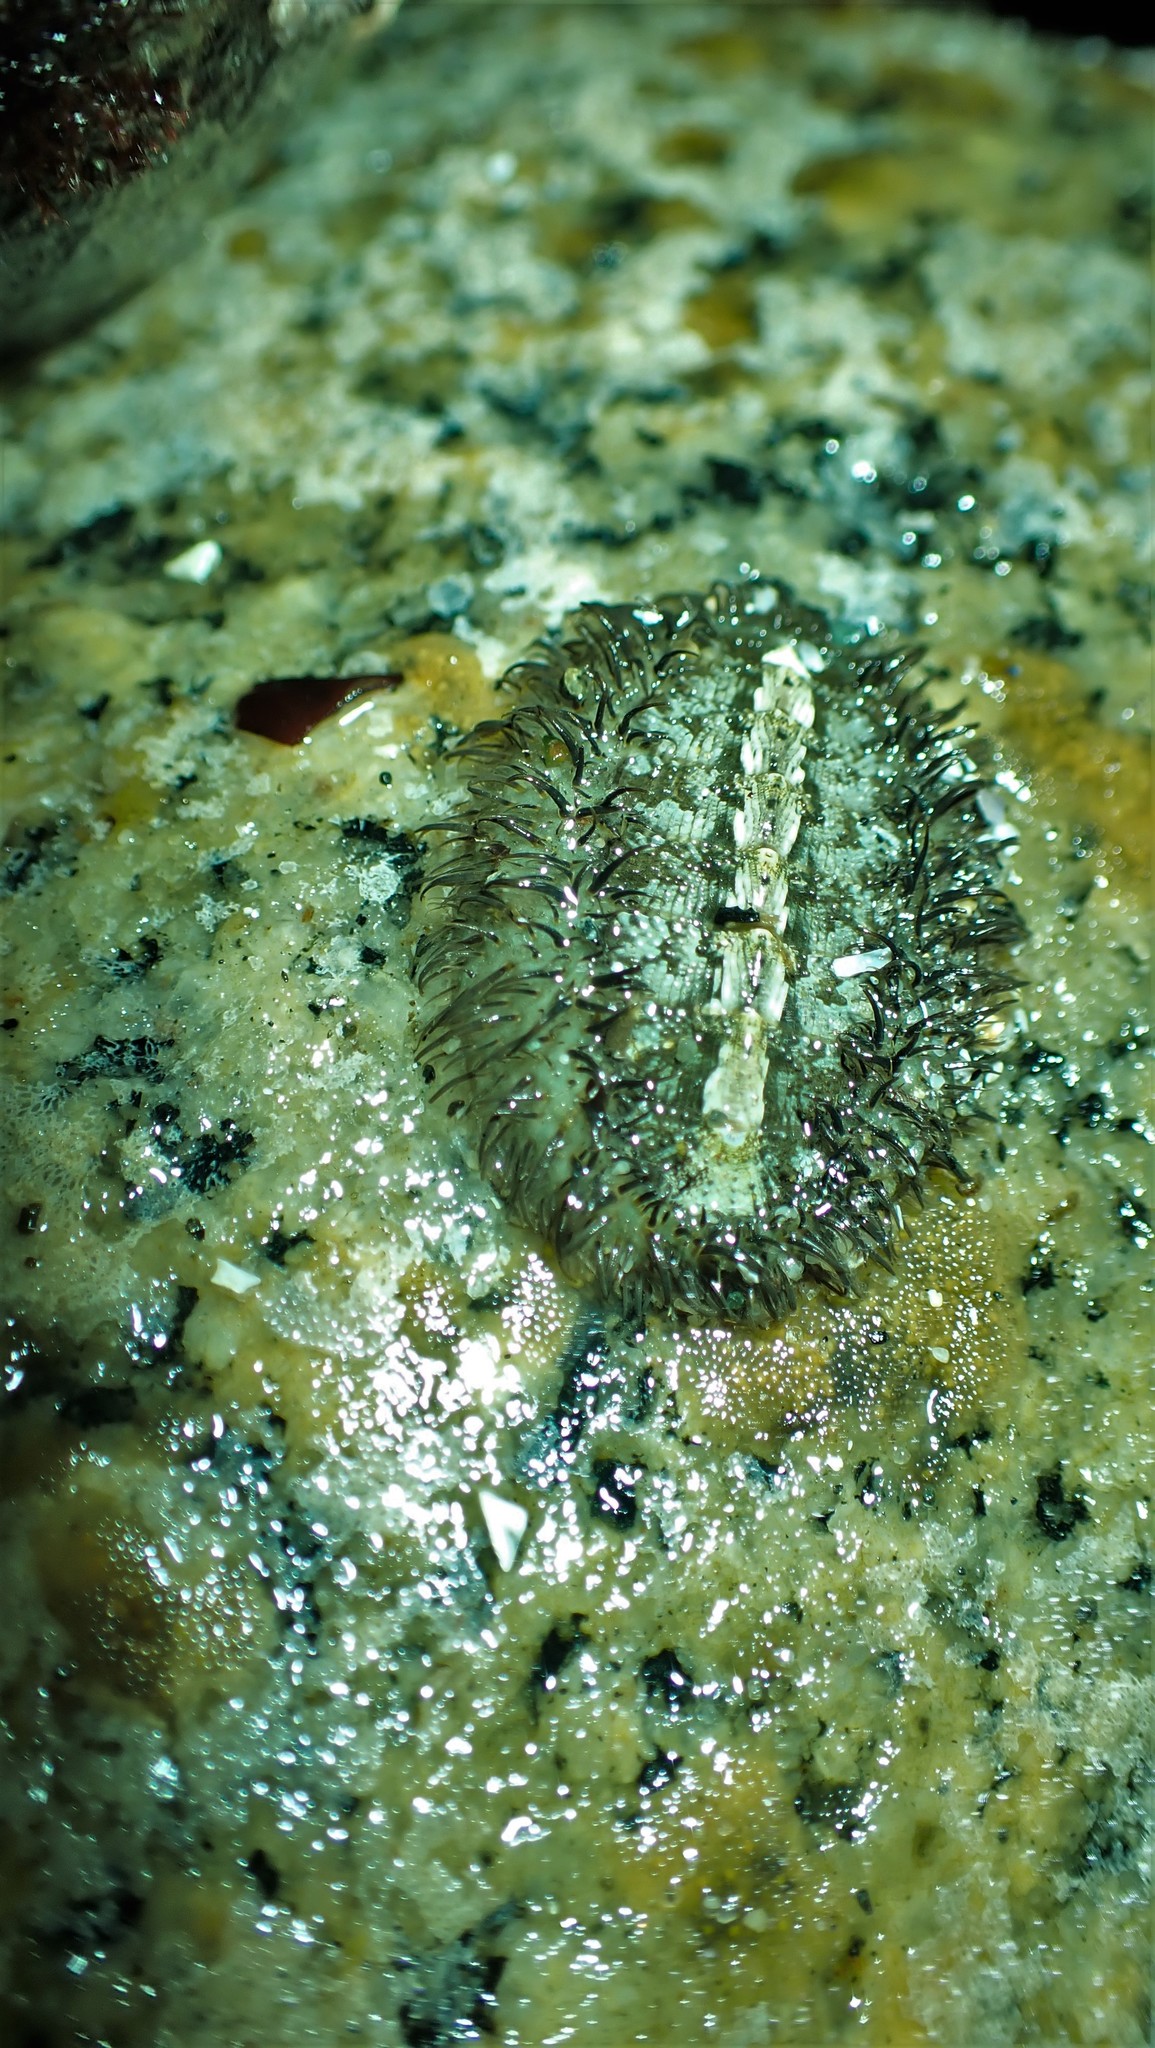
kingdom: Animalia
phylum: Mollusca
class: Polyplacophora
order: Chitonida
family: Mopaliidae
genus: Mopalia
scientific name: Mopalia muscosa
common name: Mossy chiton
